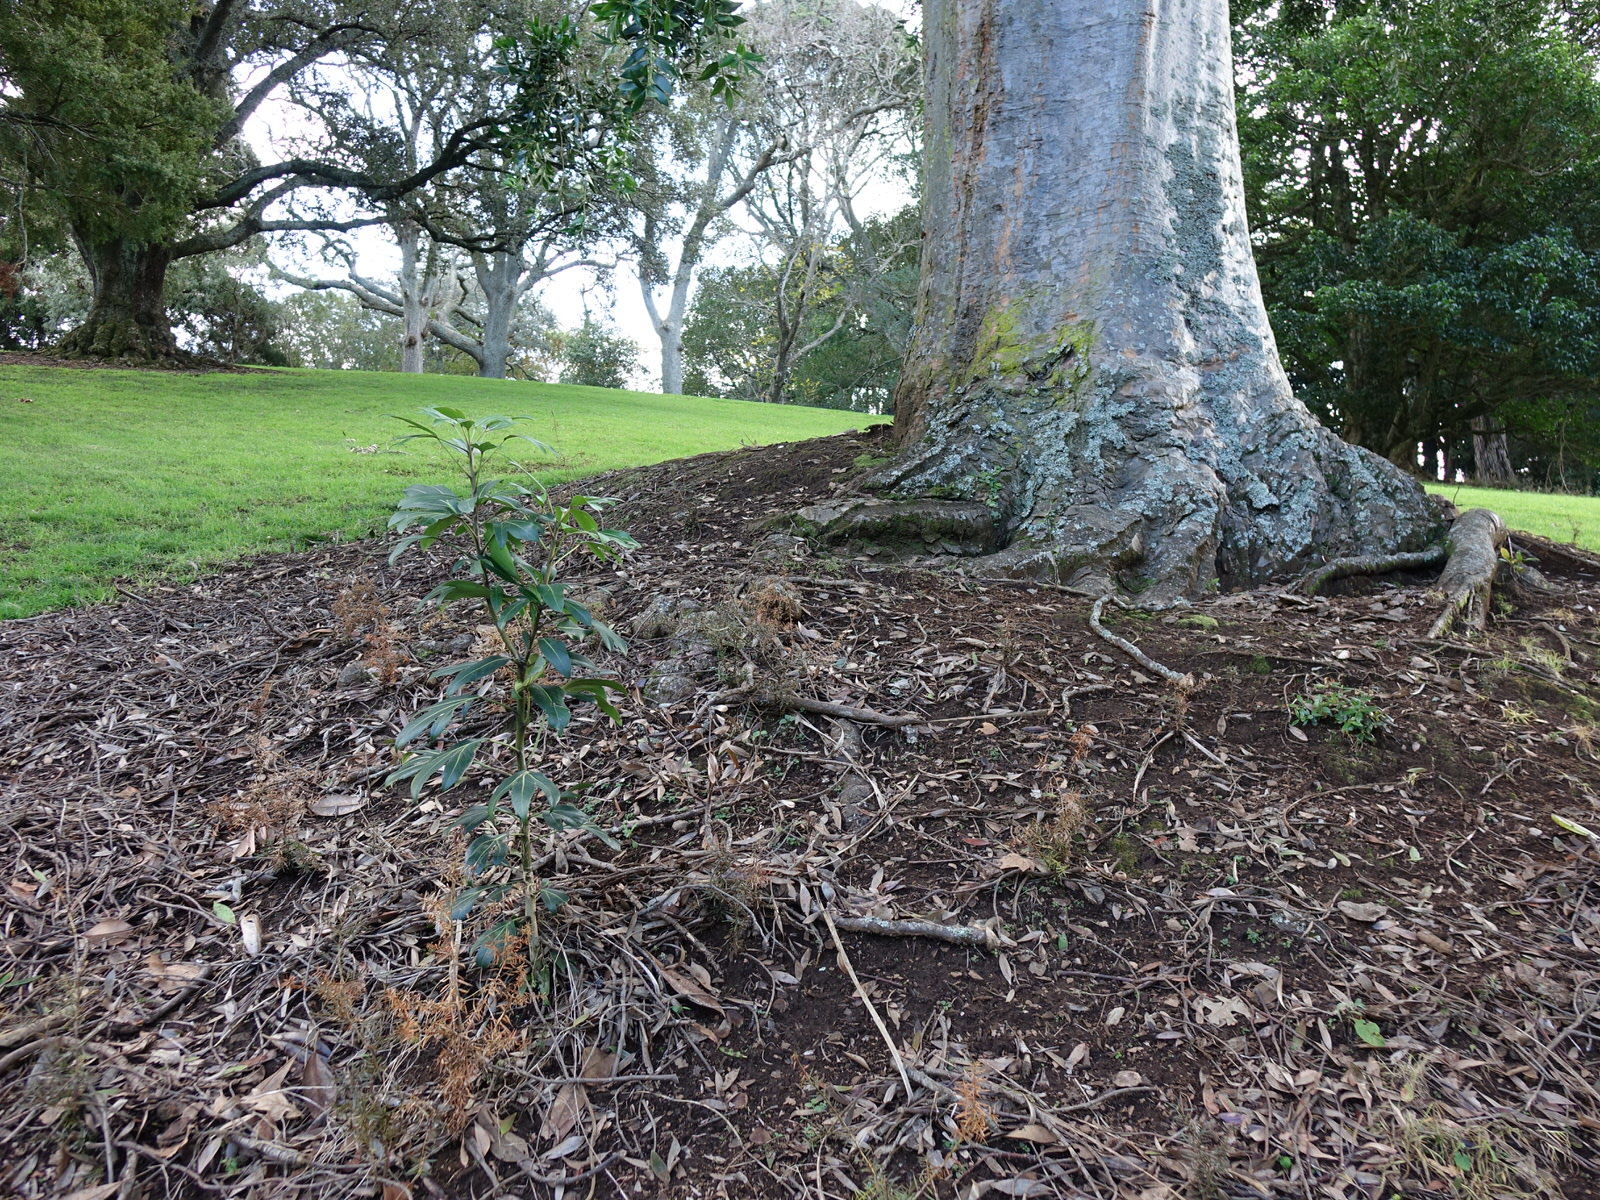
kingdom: Plantae
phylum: Tracheophyta
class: Magnoliopsida
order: Apiales
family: Araliaceae
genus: Pseudopanax
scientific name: Pseudopanax
